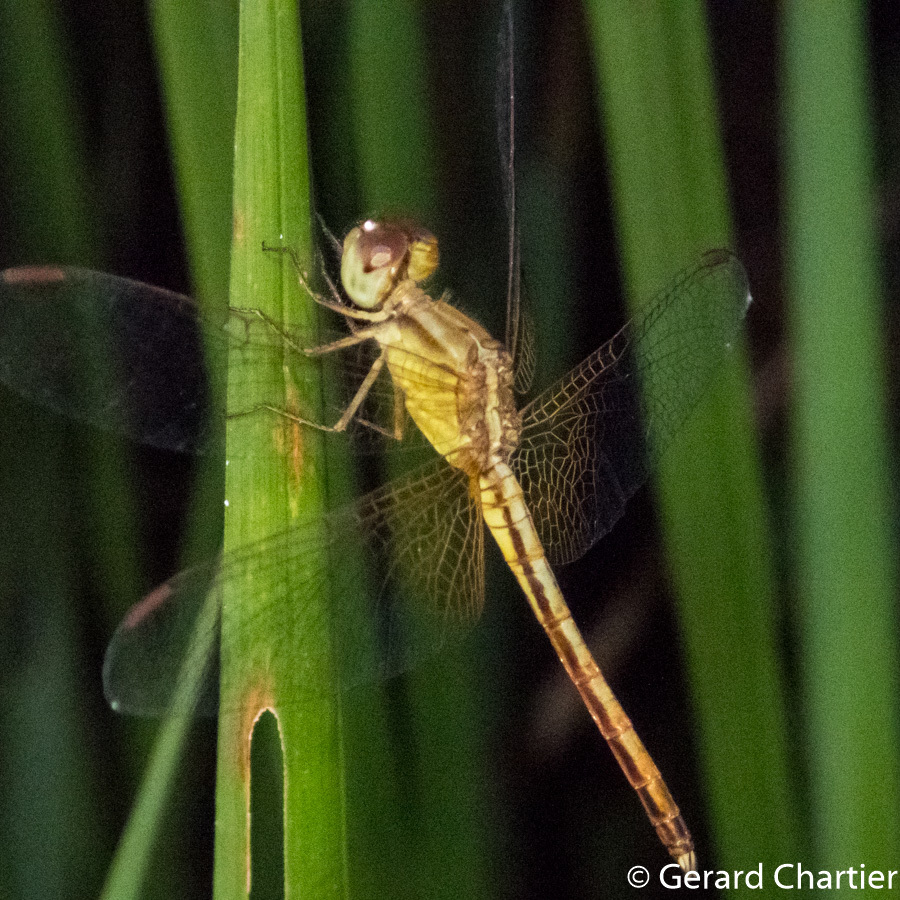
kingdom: Animalia
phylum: Arthropoda
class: Insecta
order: Odonata
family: Libellulidae
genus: Neurothemis
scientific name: Neurothemis intermedia
